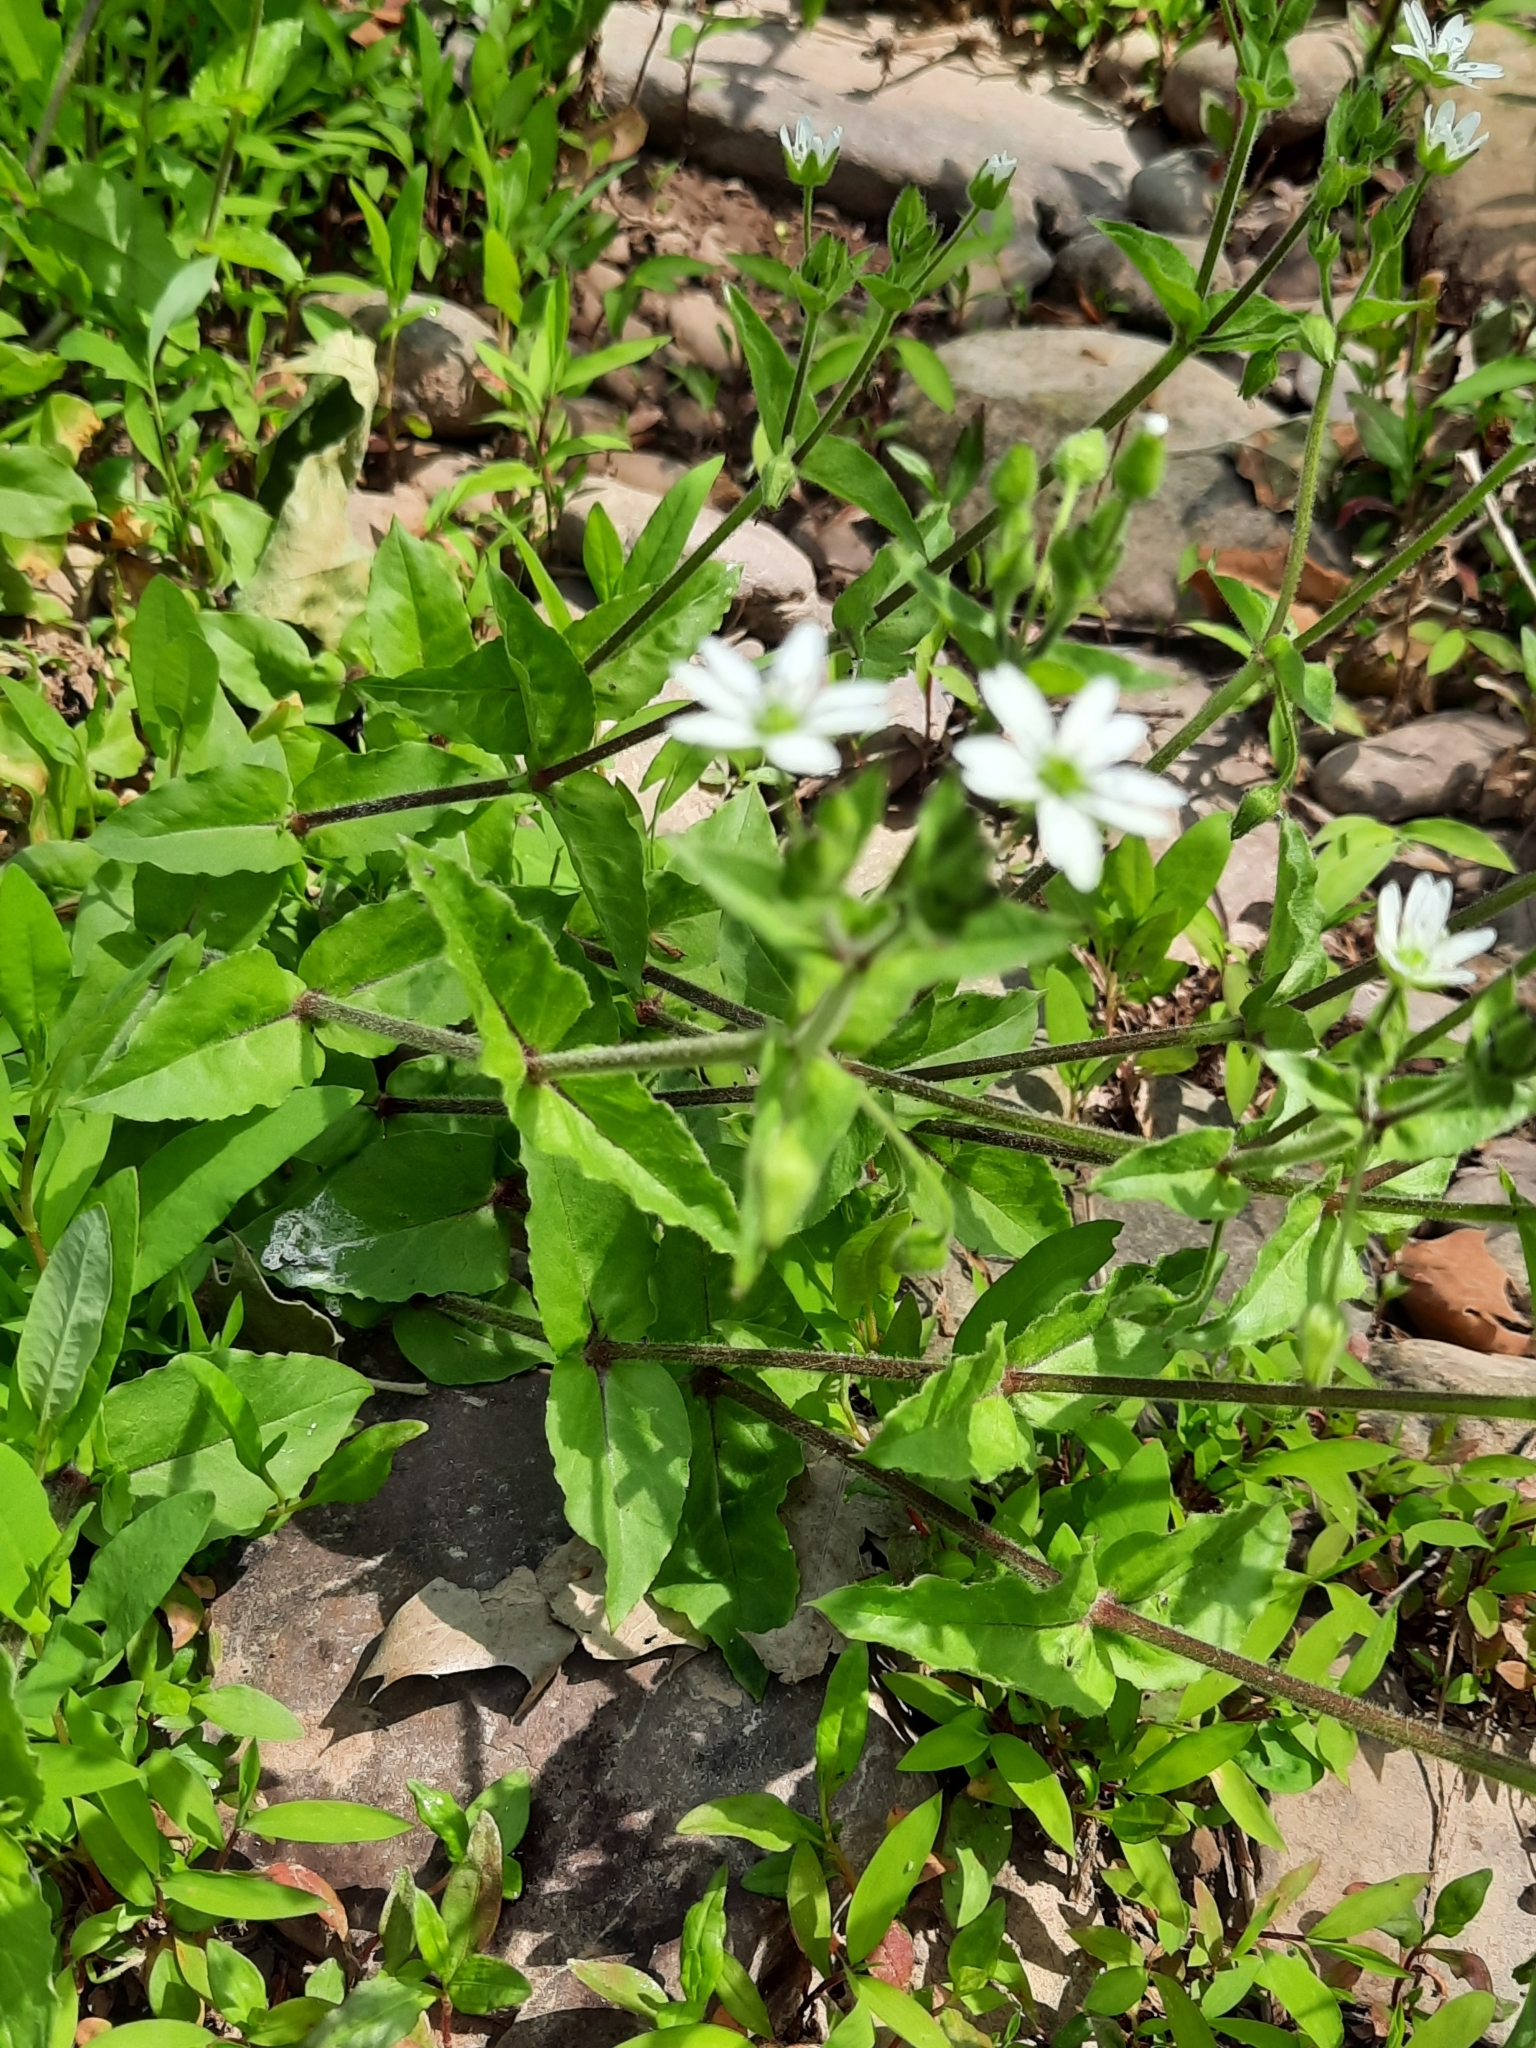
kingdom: Plantae
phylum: Tracheophyta
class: Magnoliopsida
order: Caryophyllales
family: Caryophyllaceae
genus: Stellaria
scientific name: Stellaria aquatica
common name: Water chickweed
